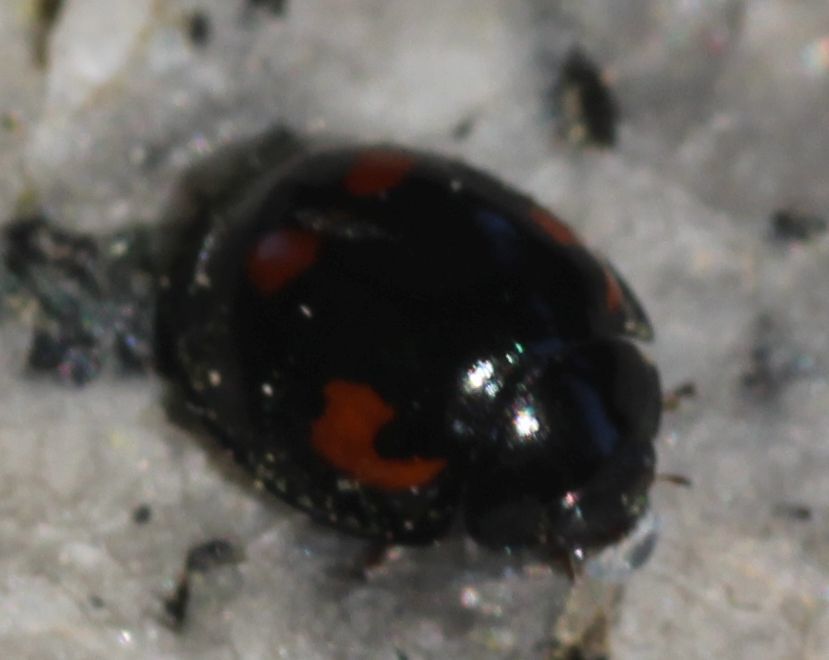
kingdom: Animalia
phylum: Arthropoda
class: Insecta
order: Coleoptera
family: Coccinellidae
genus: Brumus
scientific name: Brumus quadripustulatus
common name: Ladybird beetle
